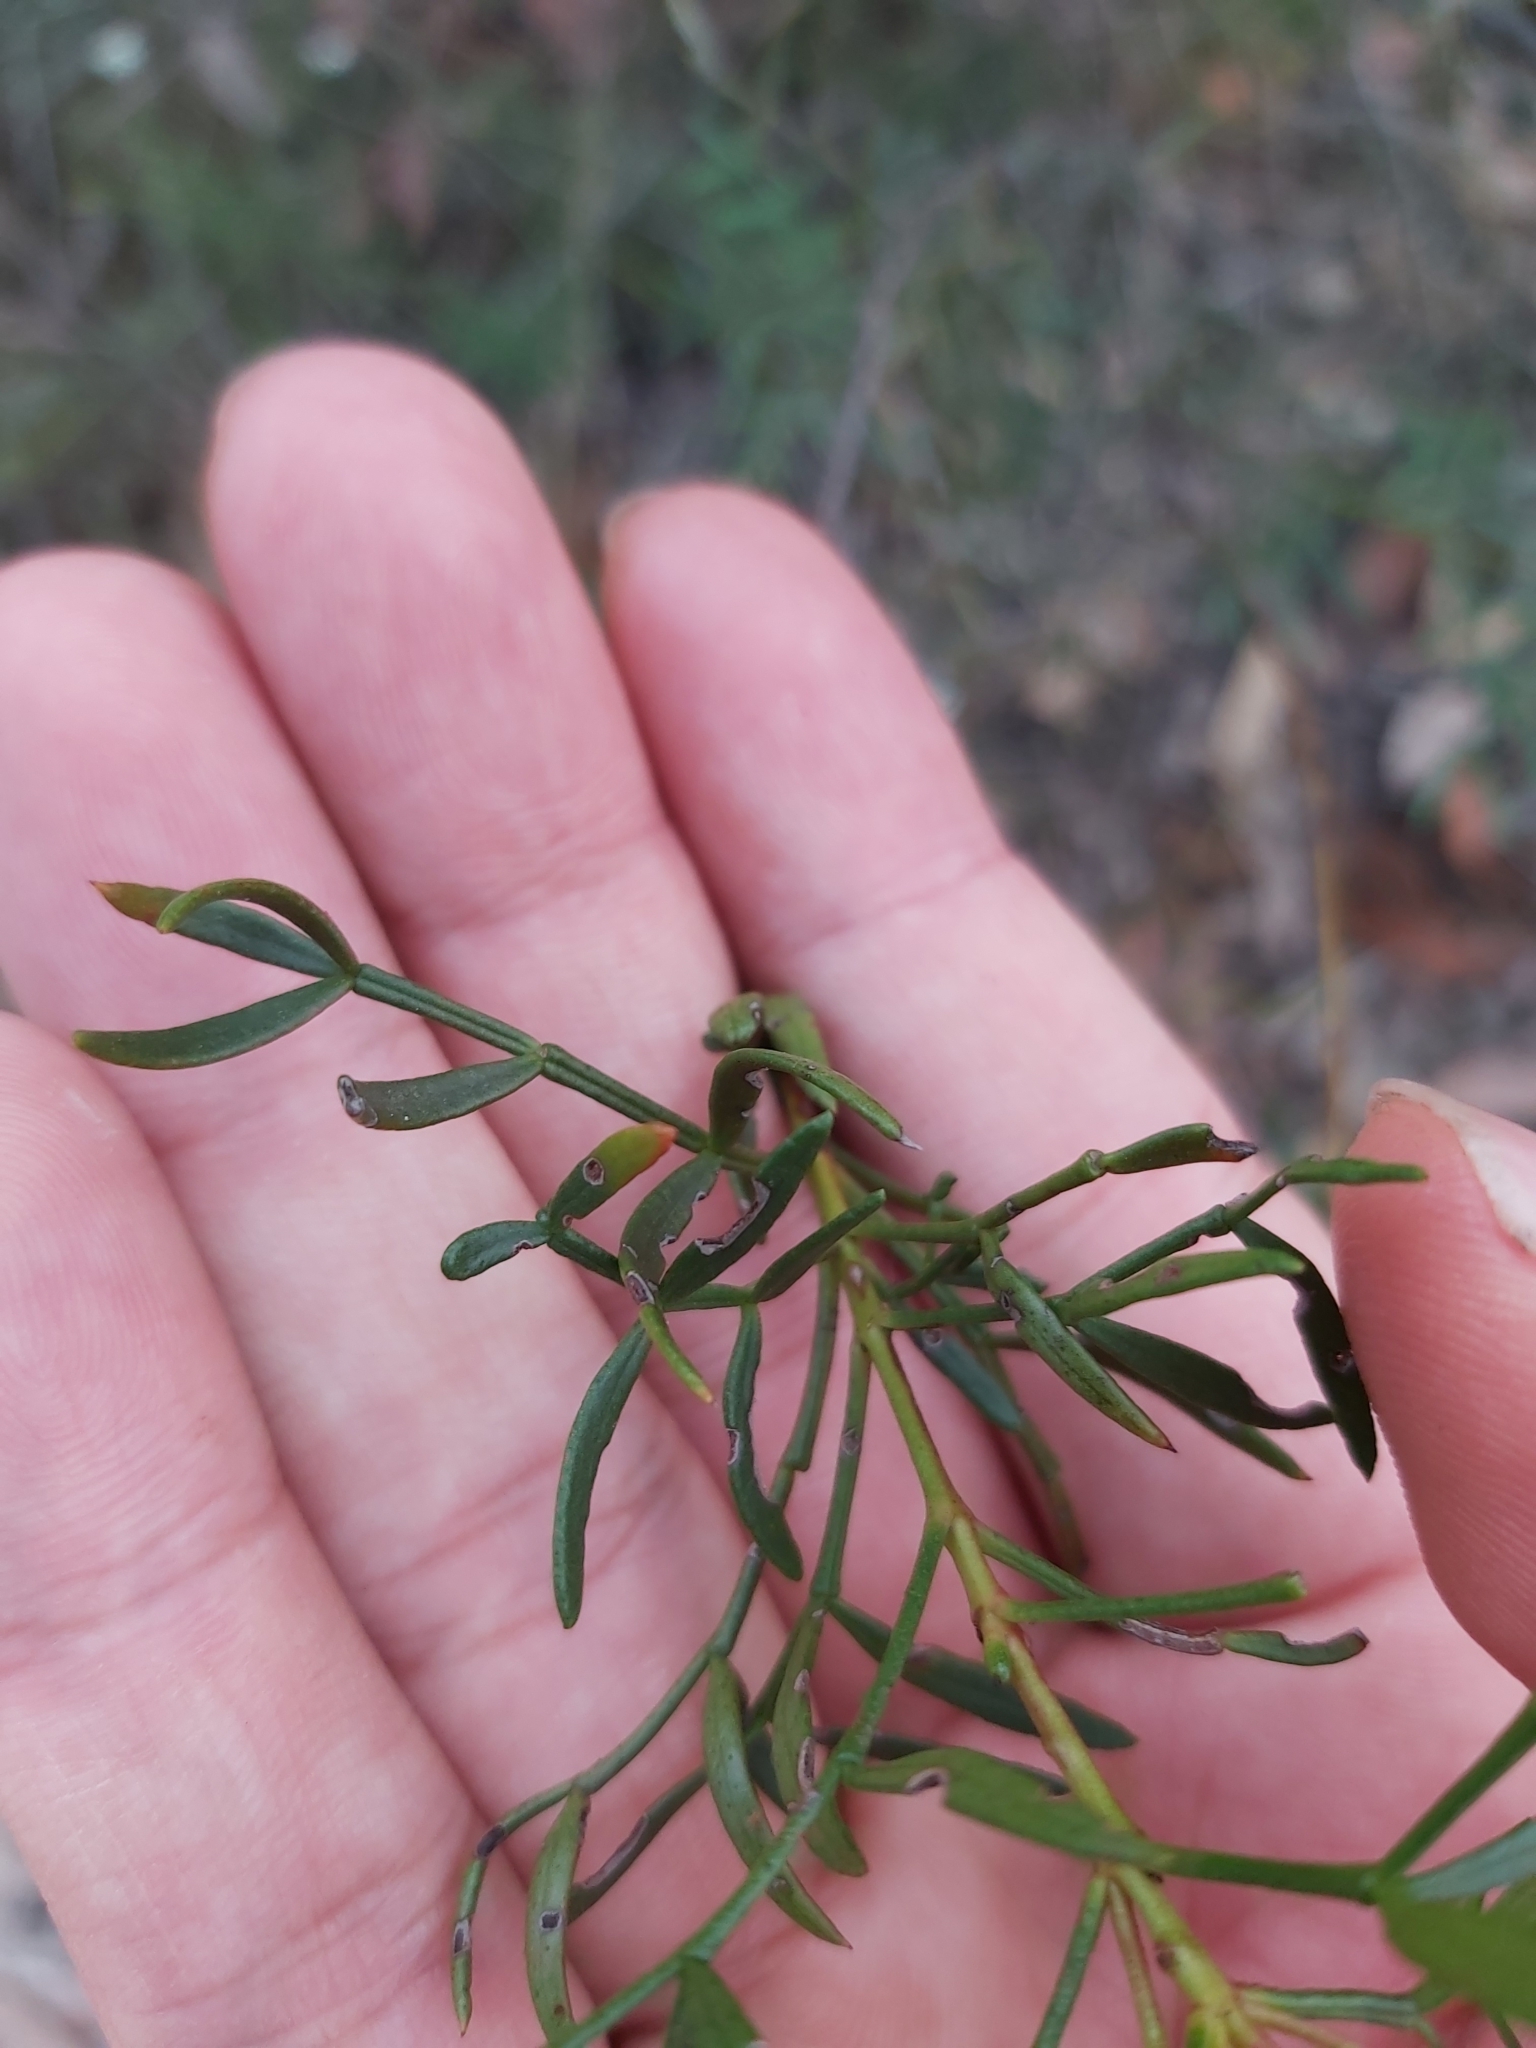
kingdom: Plantae
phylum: Tracheophyta
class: Magnoliopsida
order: Sapindales
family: Rutaceae
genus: Boronia
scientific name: Boronia floribunda
